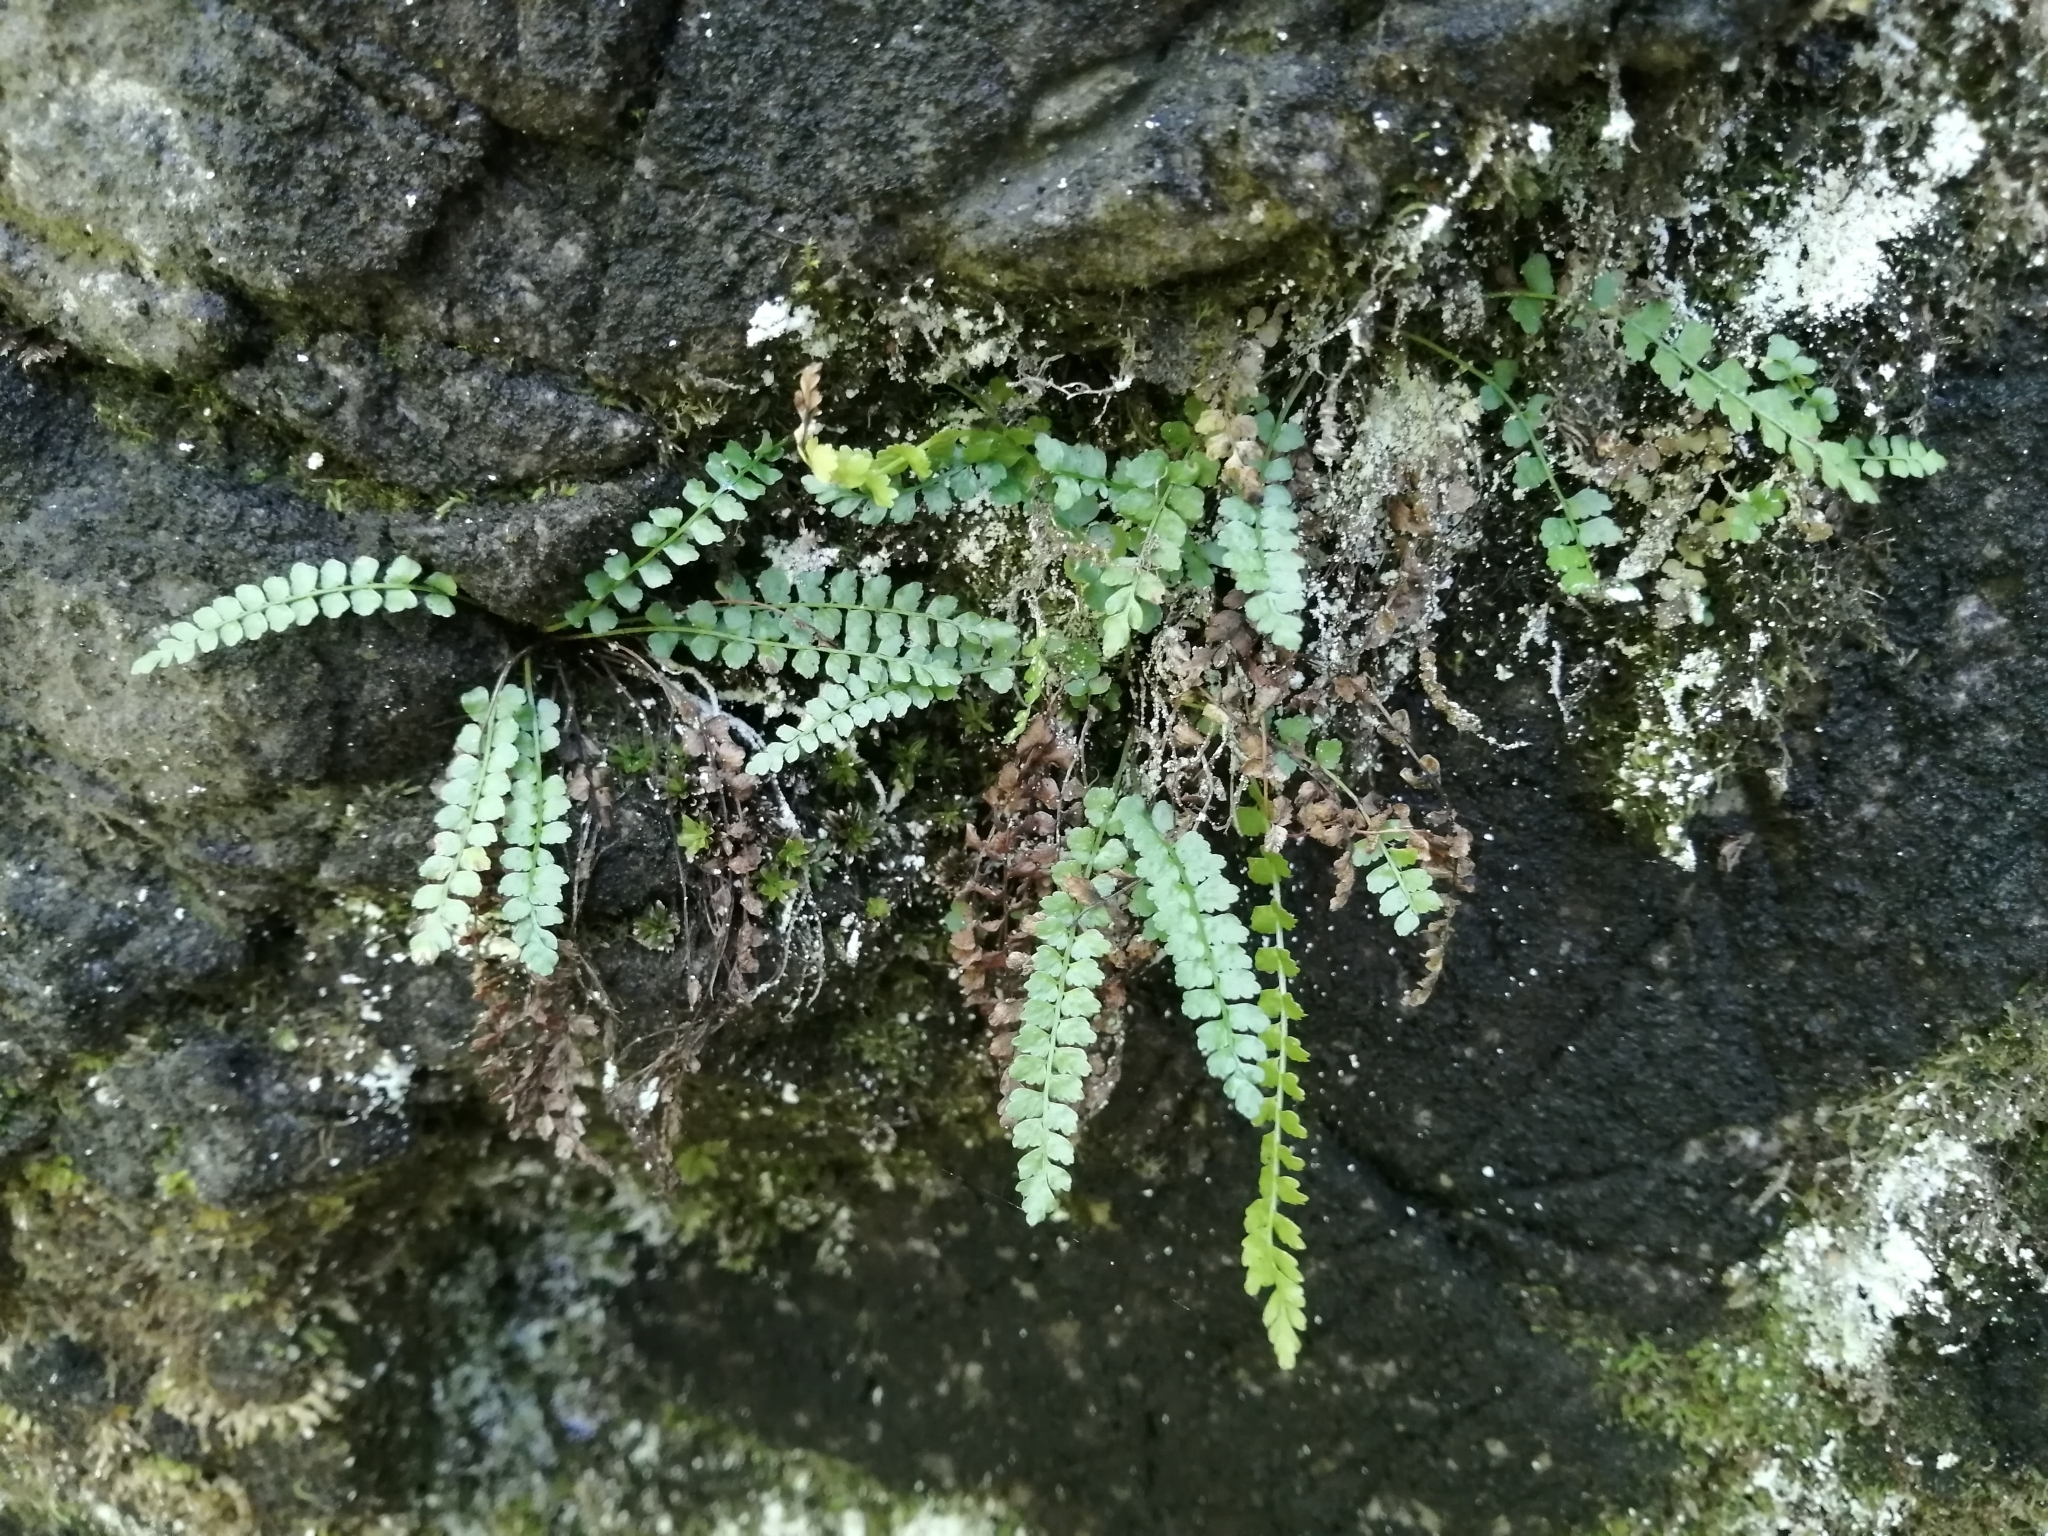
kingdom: Plantae
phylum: Tracheophyta
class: Polypodiopsida
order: Polypodiales
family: Aspleniaceae
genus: Asplenium
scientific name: Asplenium viride
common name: Green spleenwort
